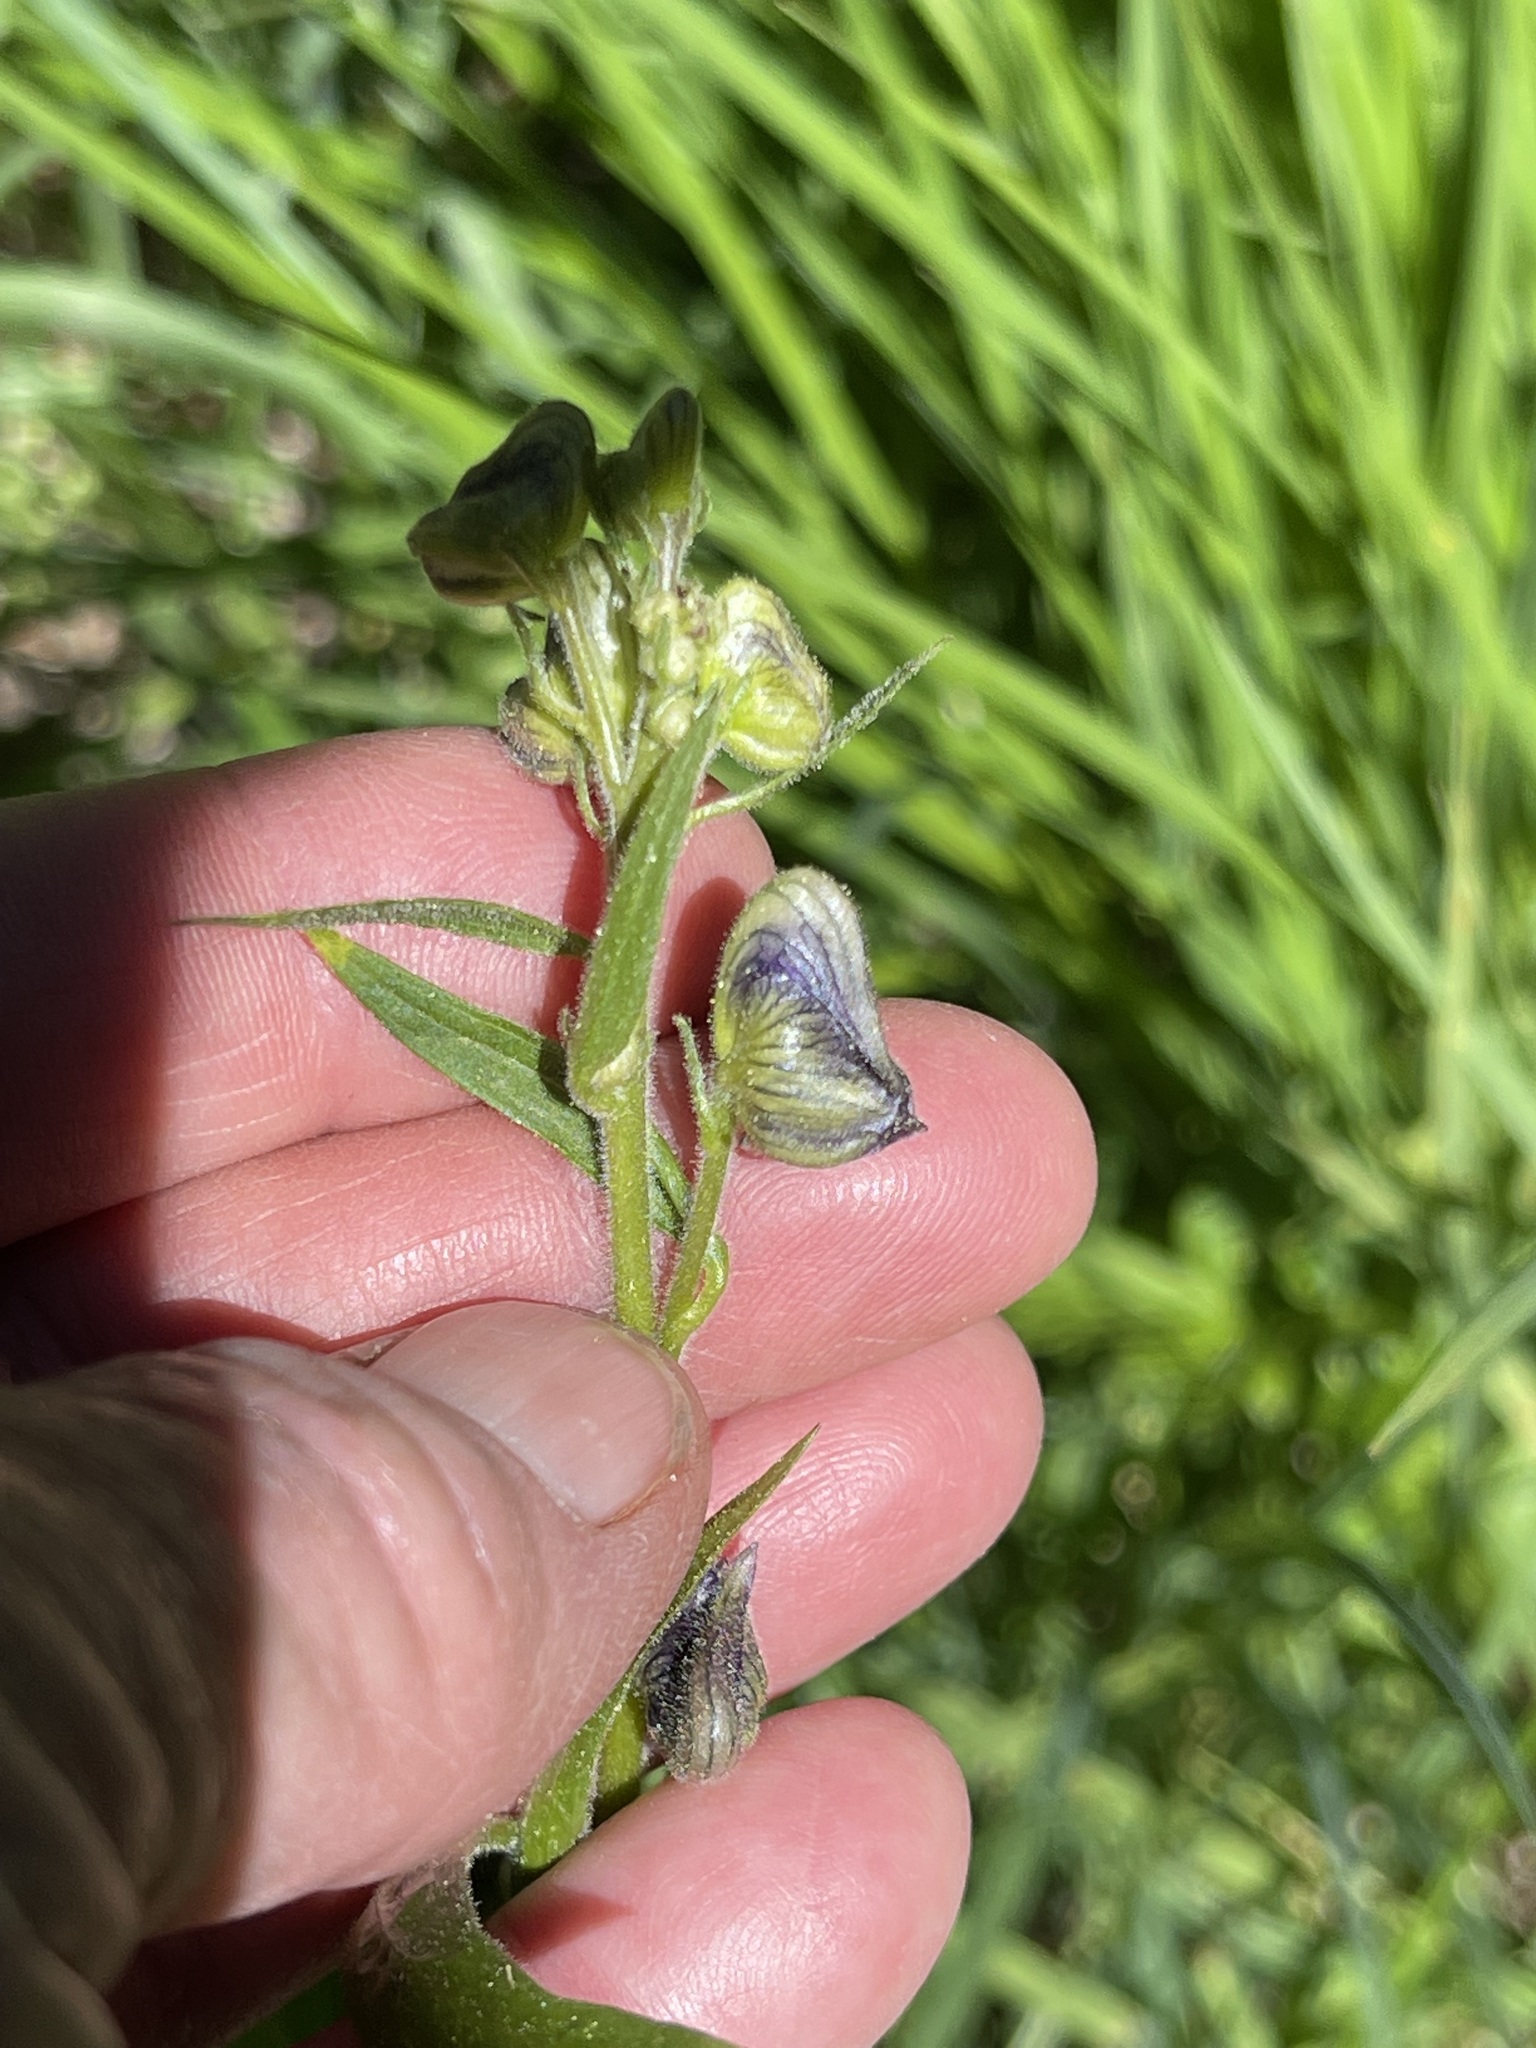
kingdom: Plantae
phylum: Tracheophyta
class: Magnoliopsida
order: Ranunculales
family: Ranunculaceae
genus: Aconitum
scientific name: Aconitum columbianum
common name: Columbia aconite
